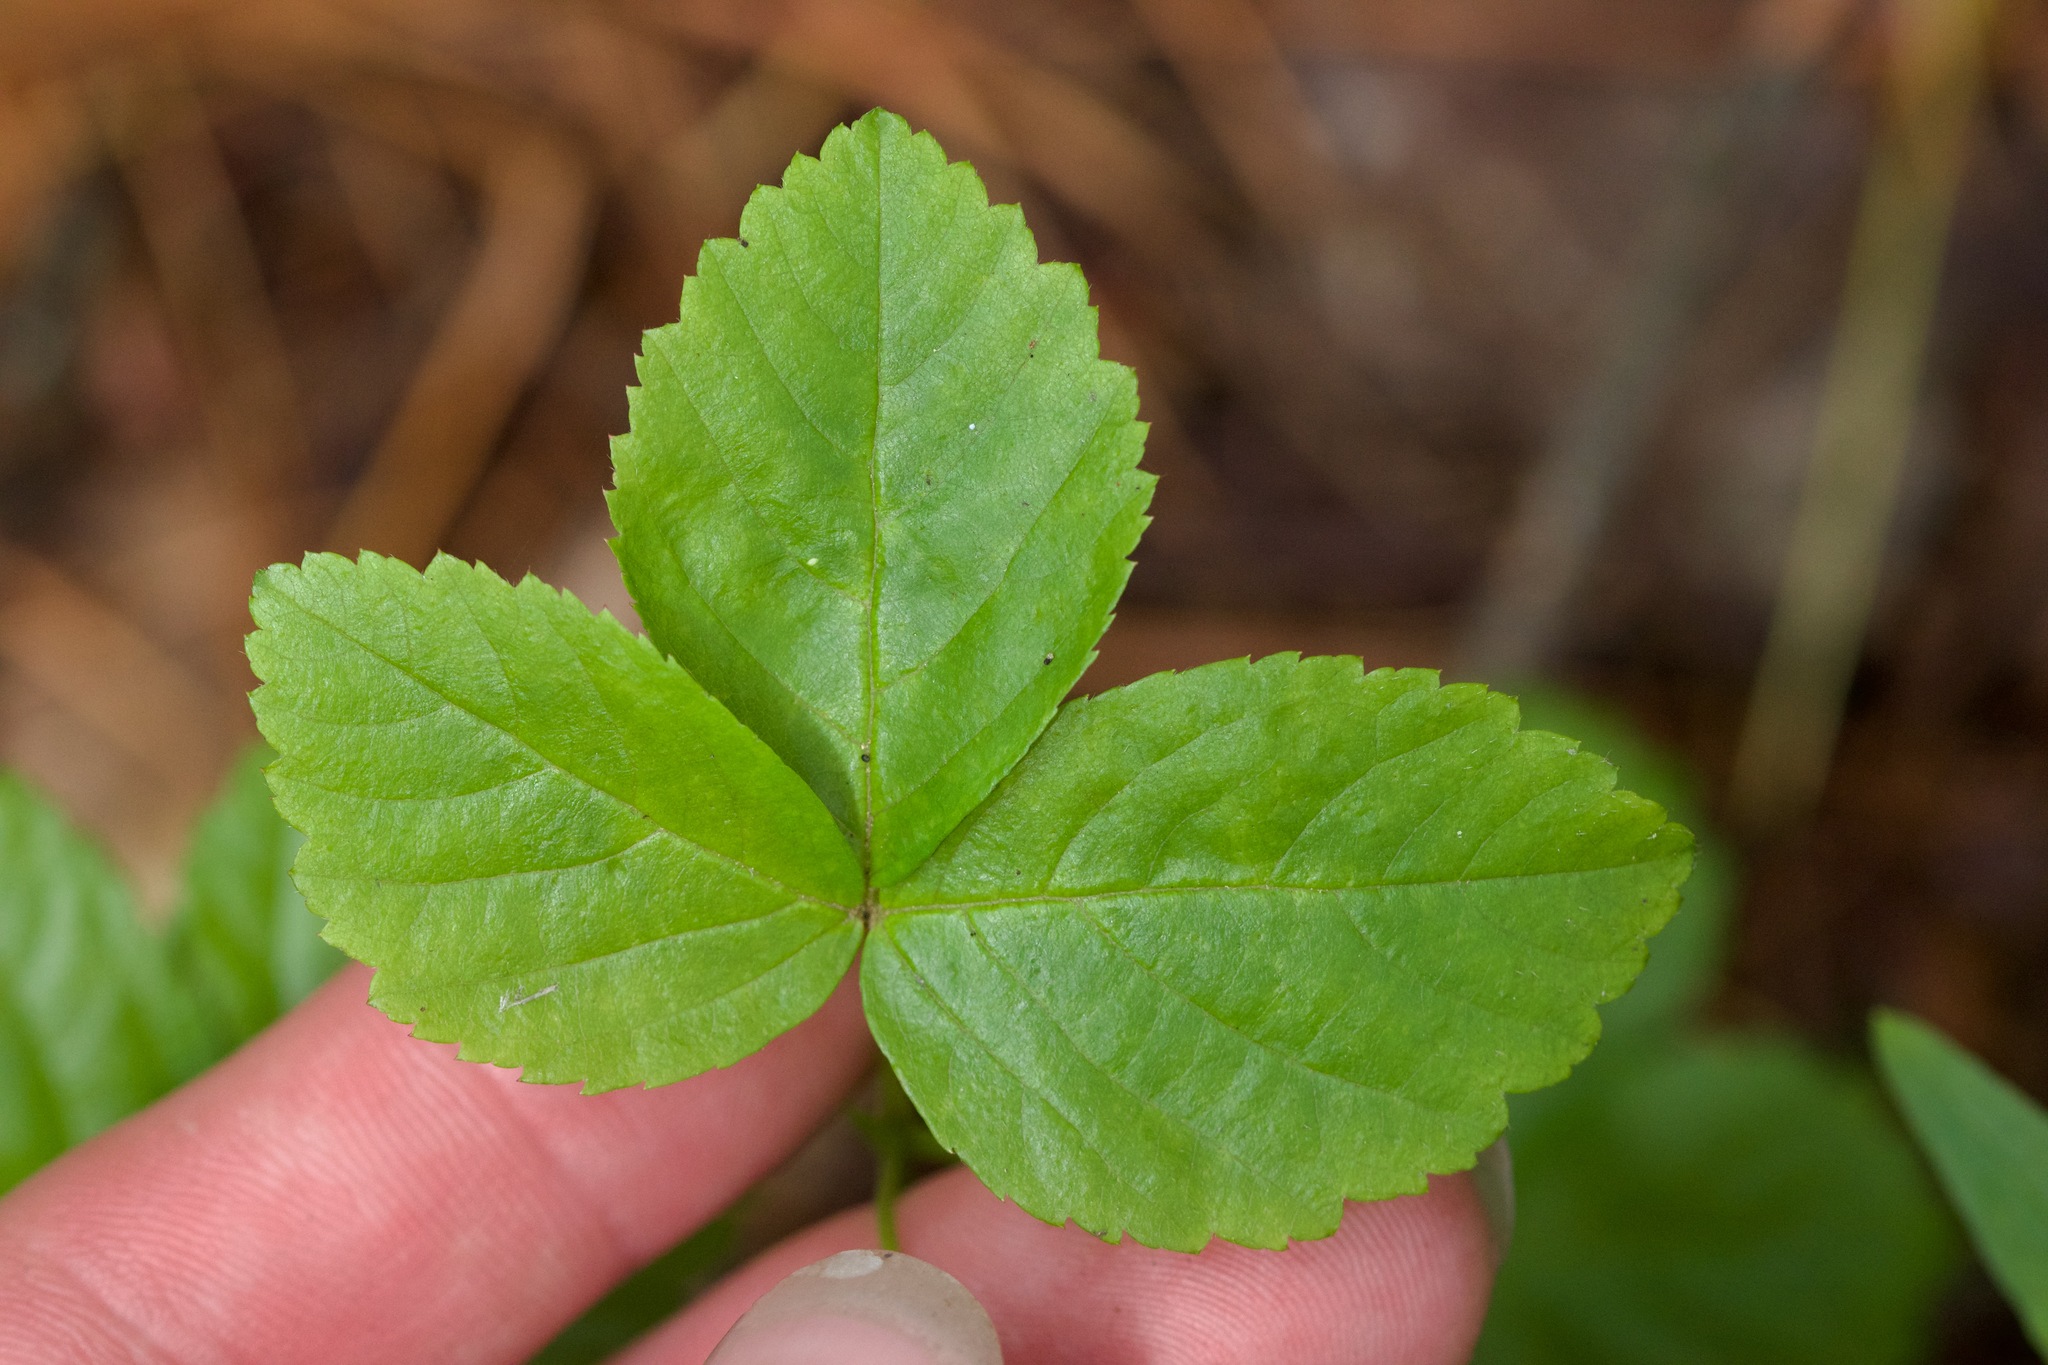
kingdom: Plantae
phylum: Tracheophyta
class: Magnoliopsida
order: Rosales
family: Rosaceae
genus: Rubus
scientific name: Rubus hispidus
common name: Running blackberry
